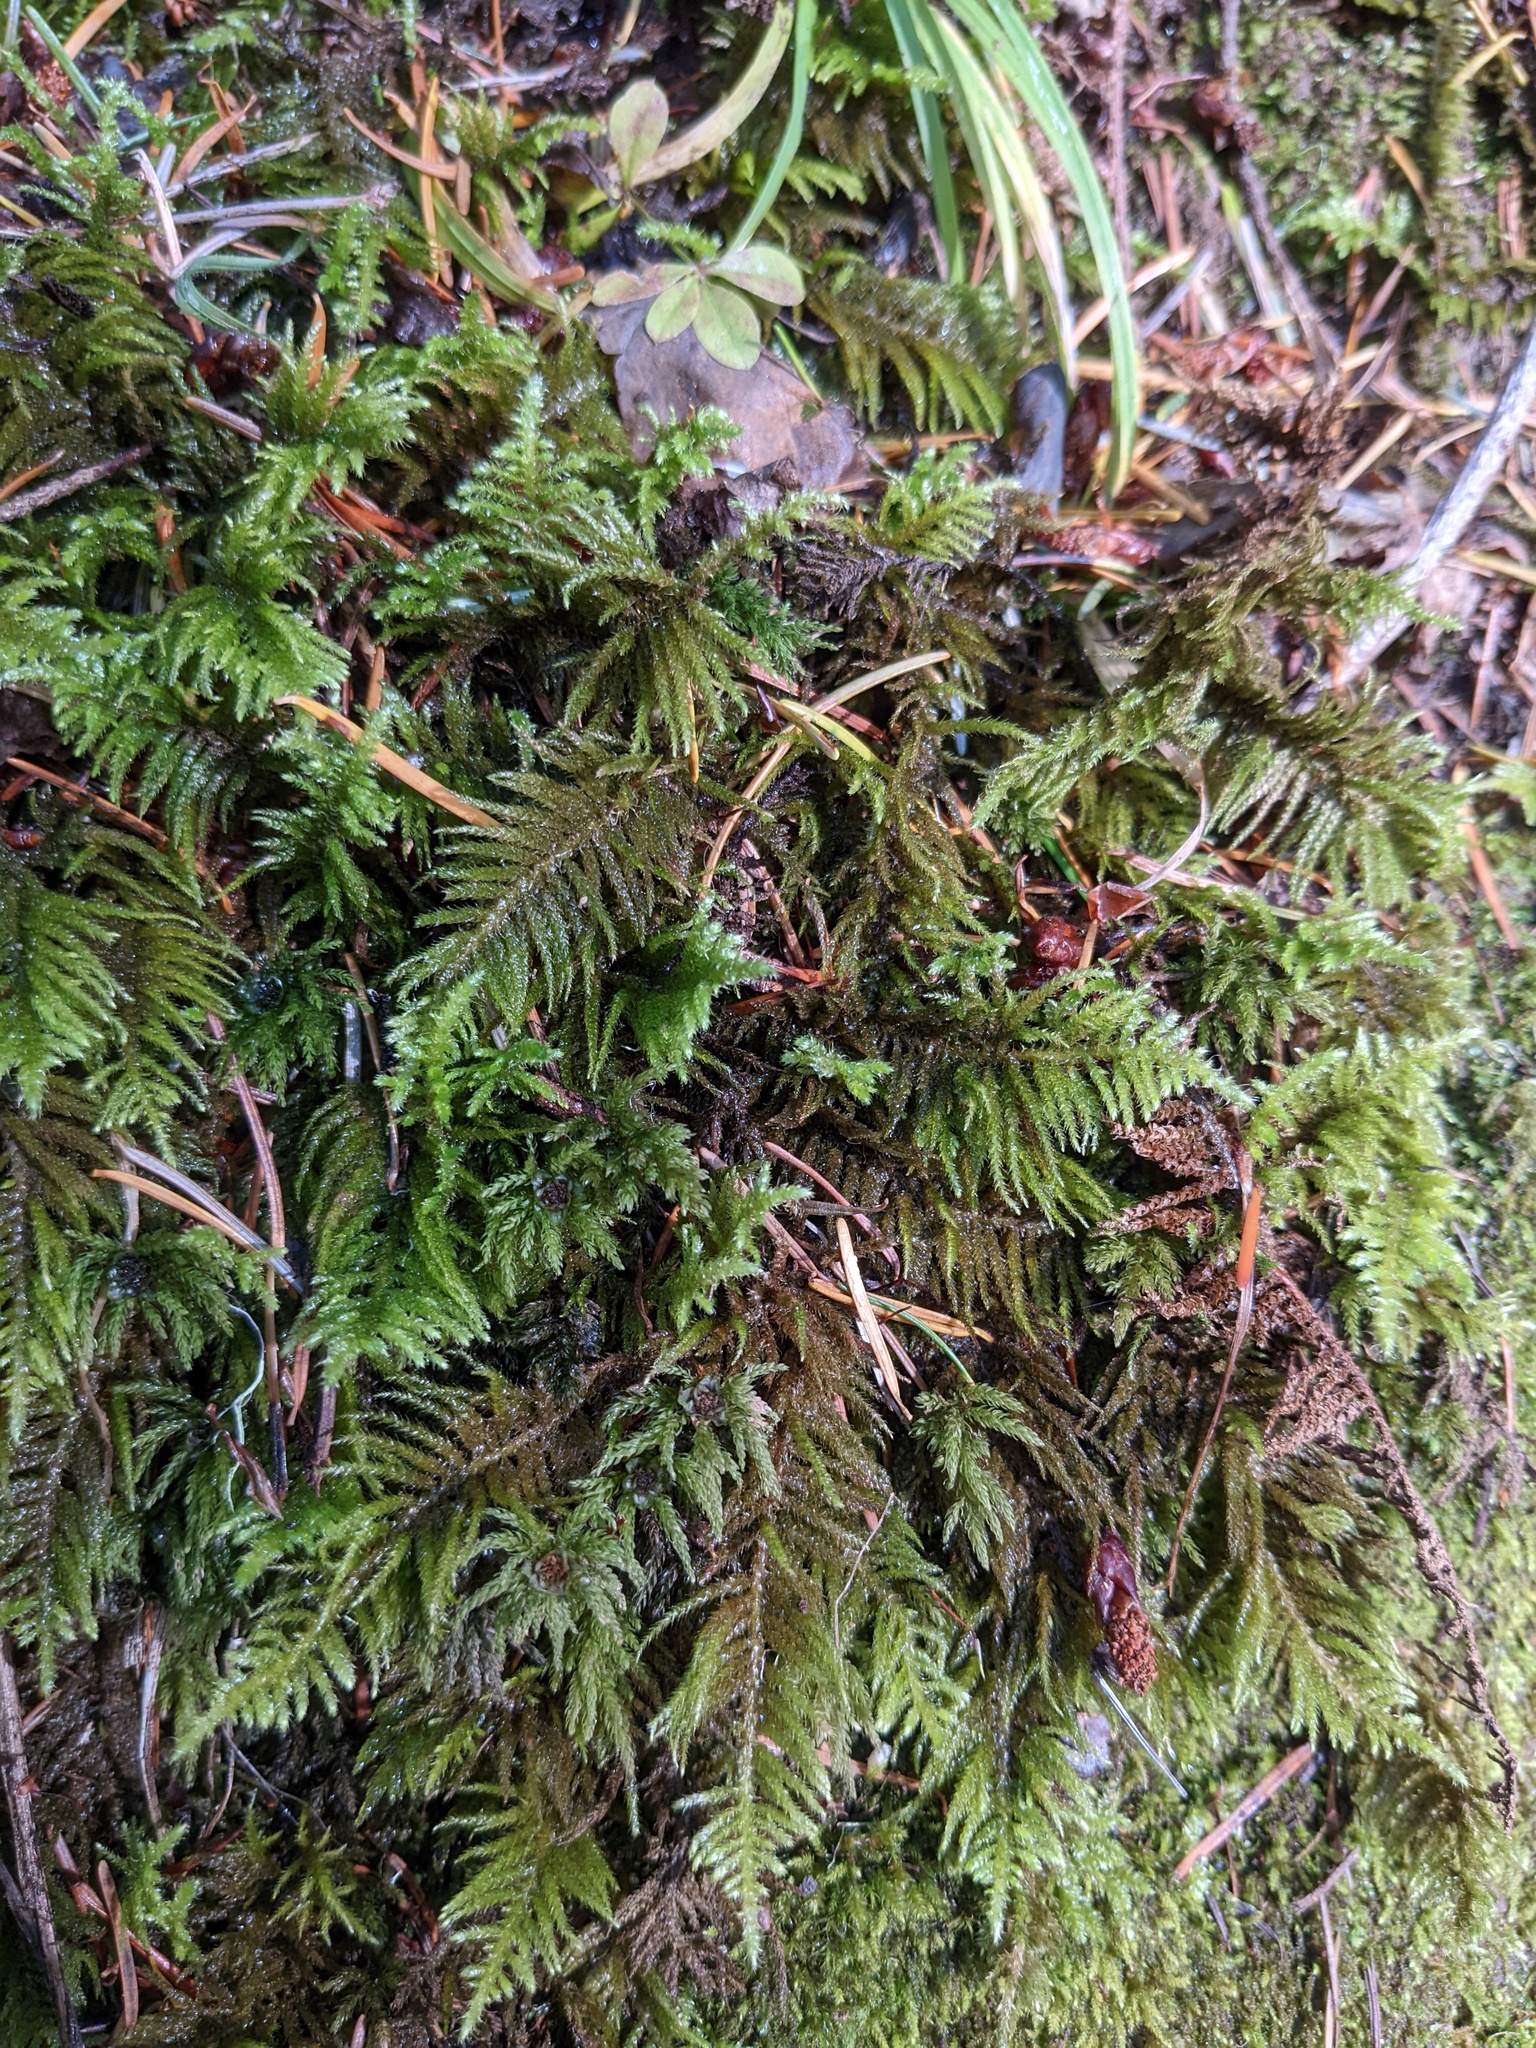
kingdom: Plantae
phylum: Bryophyta
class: Bryopsida
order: Hypnales
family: Brachytheciaceae
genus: Kindbergia
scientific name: Kindbergia oregana
